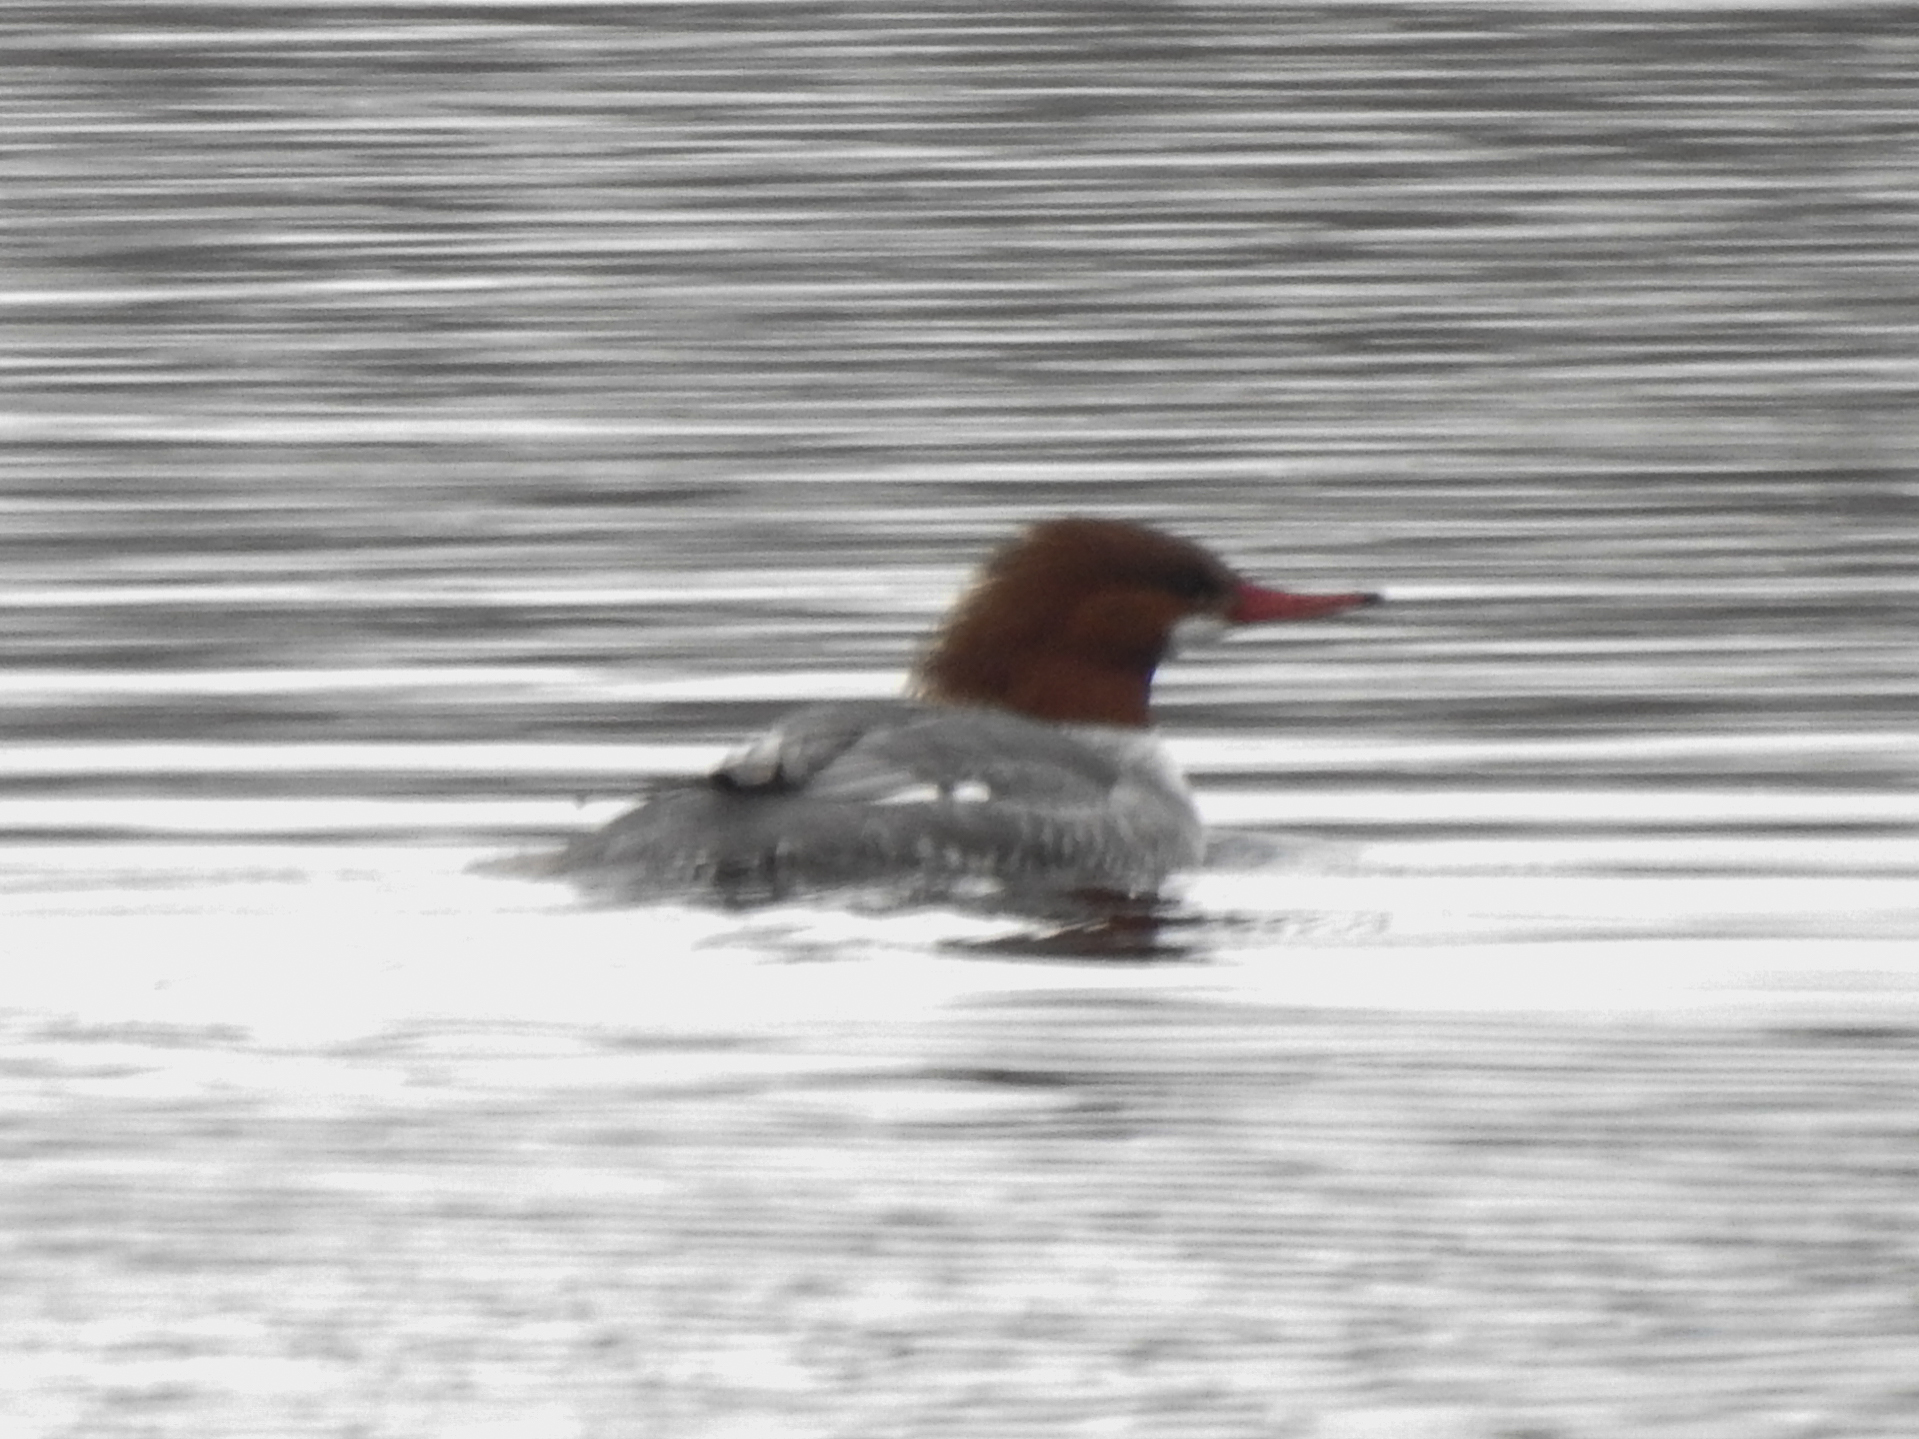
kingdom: Animalia
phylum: Chordata
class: Aves
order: Anseriformes
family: Anatidae
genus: Mergus
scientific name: Mergus merganser
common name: Common merganser
